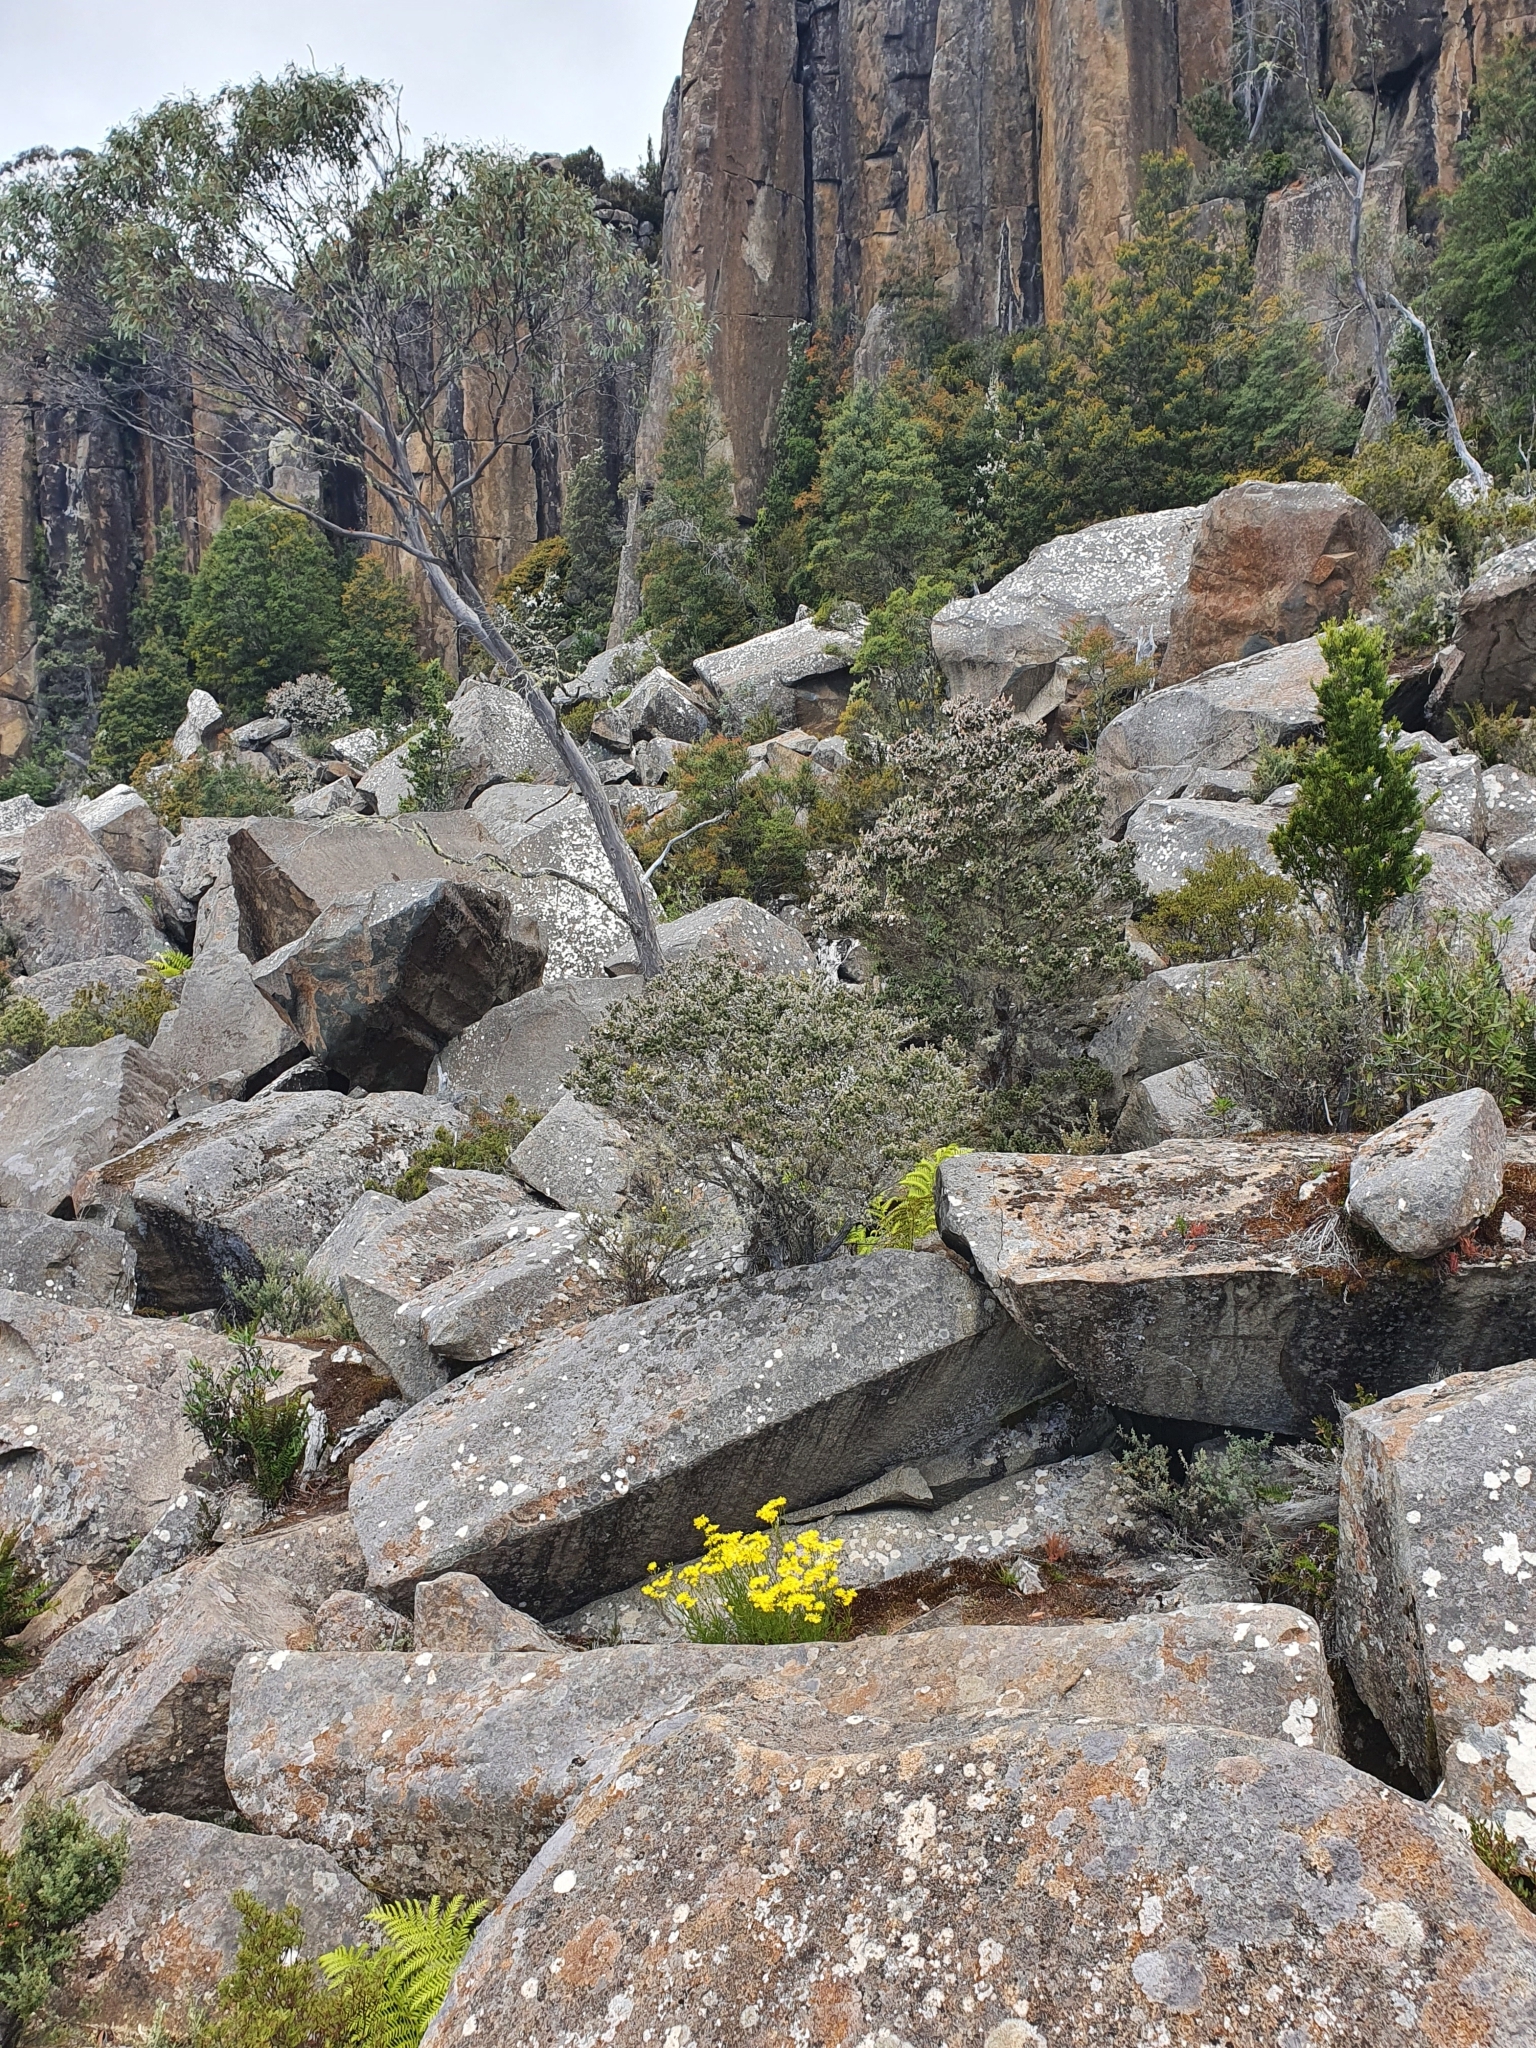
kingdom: Plantae
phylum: Tracheophyta
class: Magnoliopsida
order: Asterales
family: Asteraceae
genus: Senecio
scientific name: Senecio pinnatifolius
